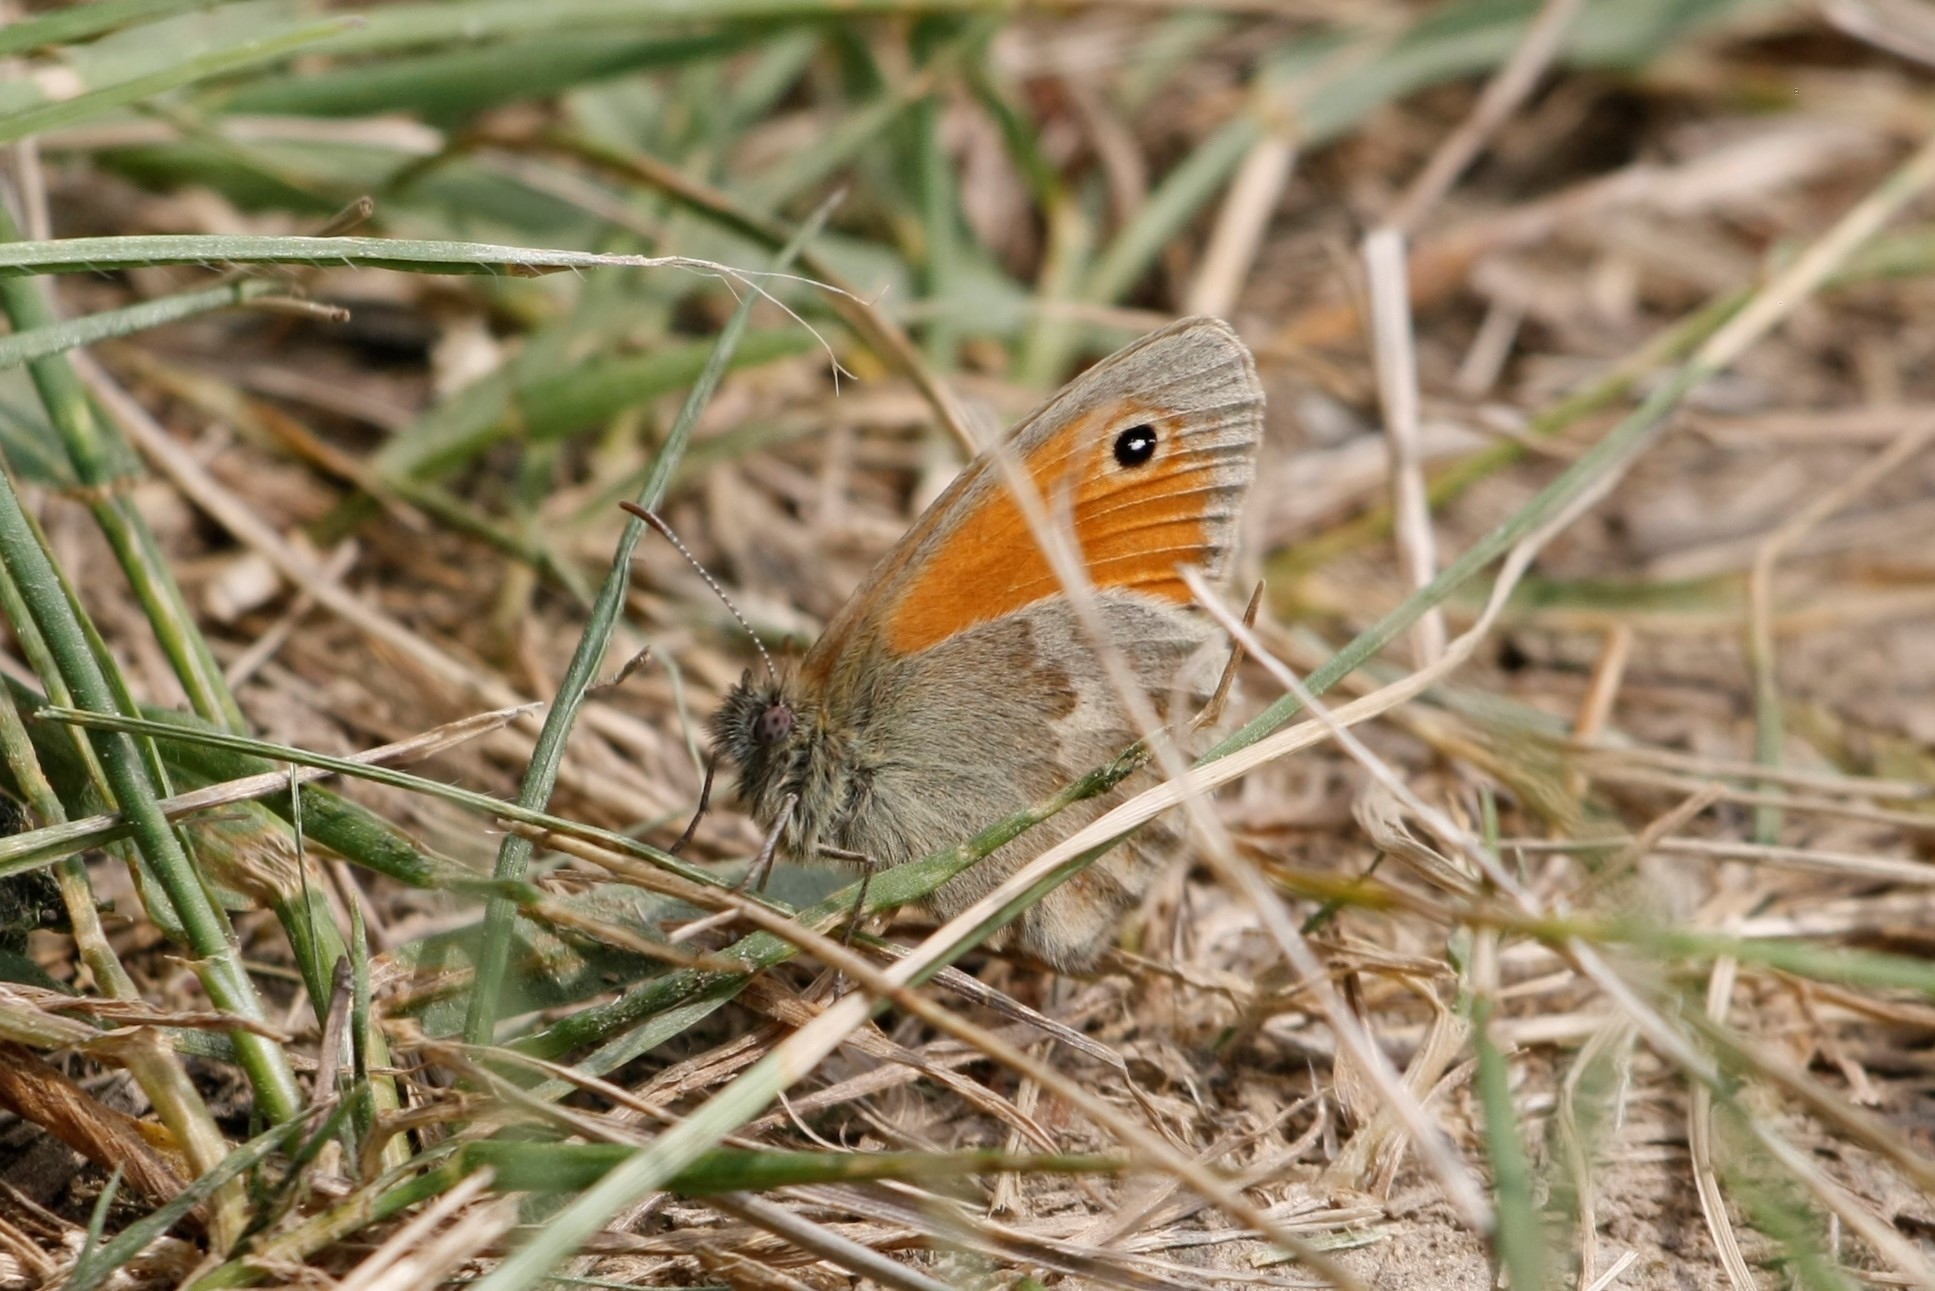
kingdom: Animalia
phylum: Arthropoda
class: Insecta
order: Lepidoptera
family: Nymphalidae
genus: Coenonympha
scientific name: Coenonympha pamphilus
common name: Small heath
